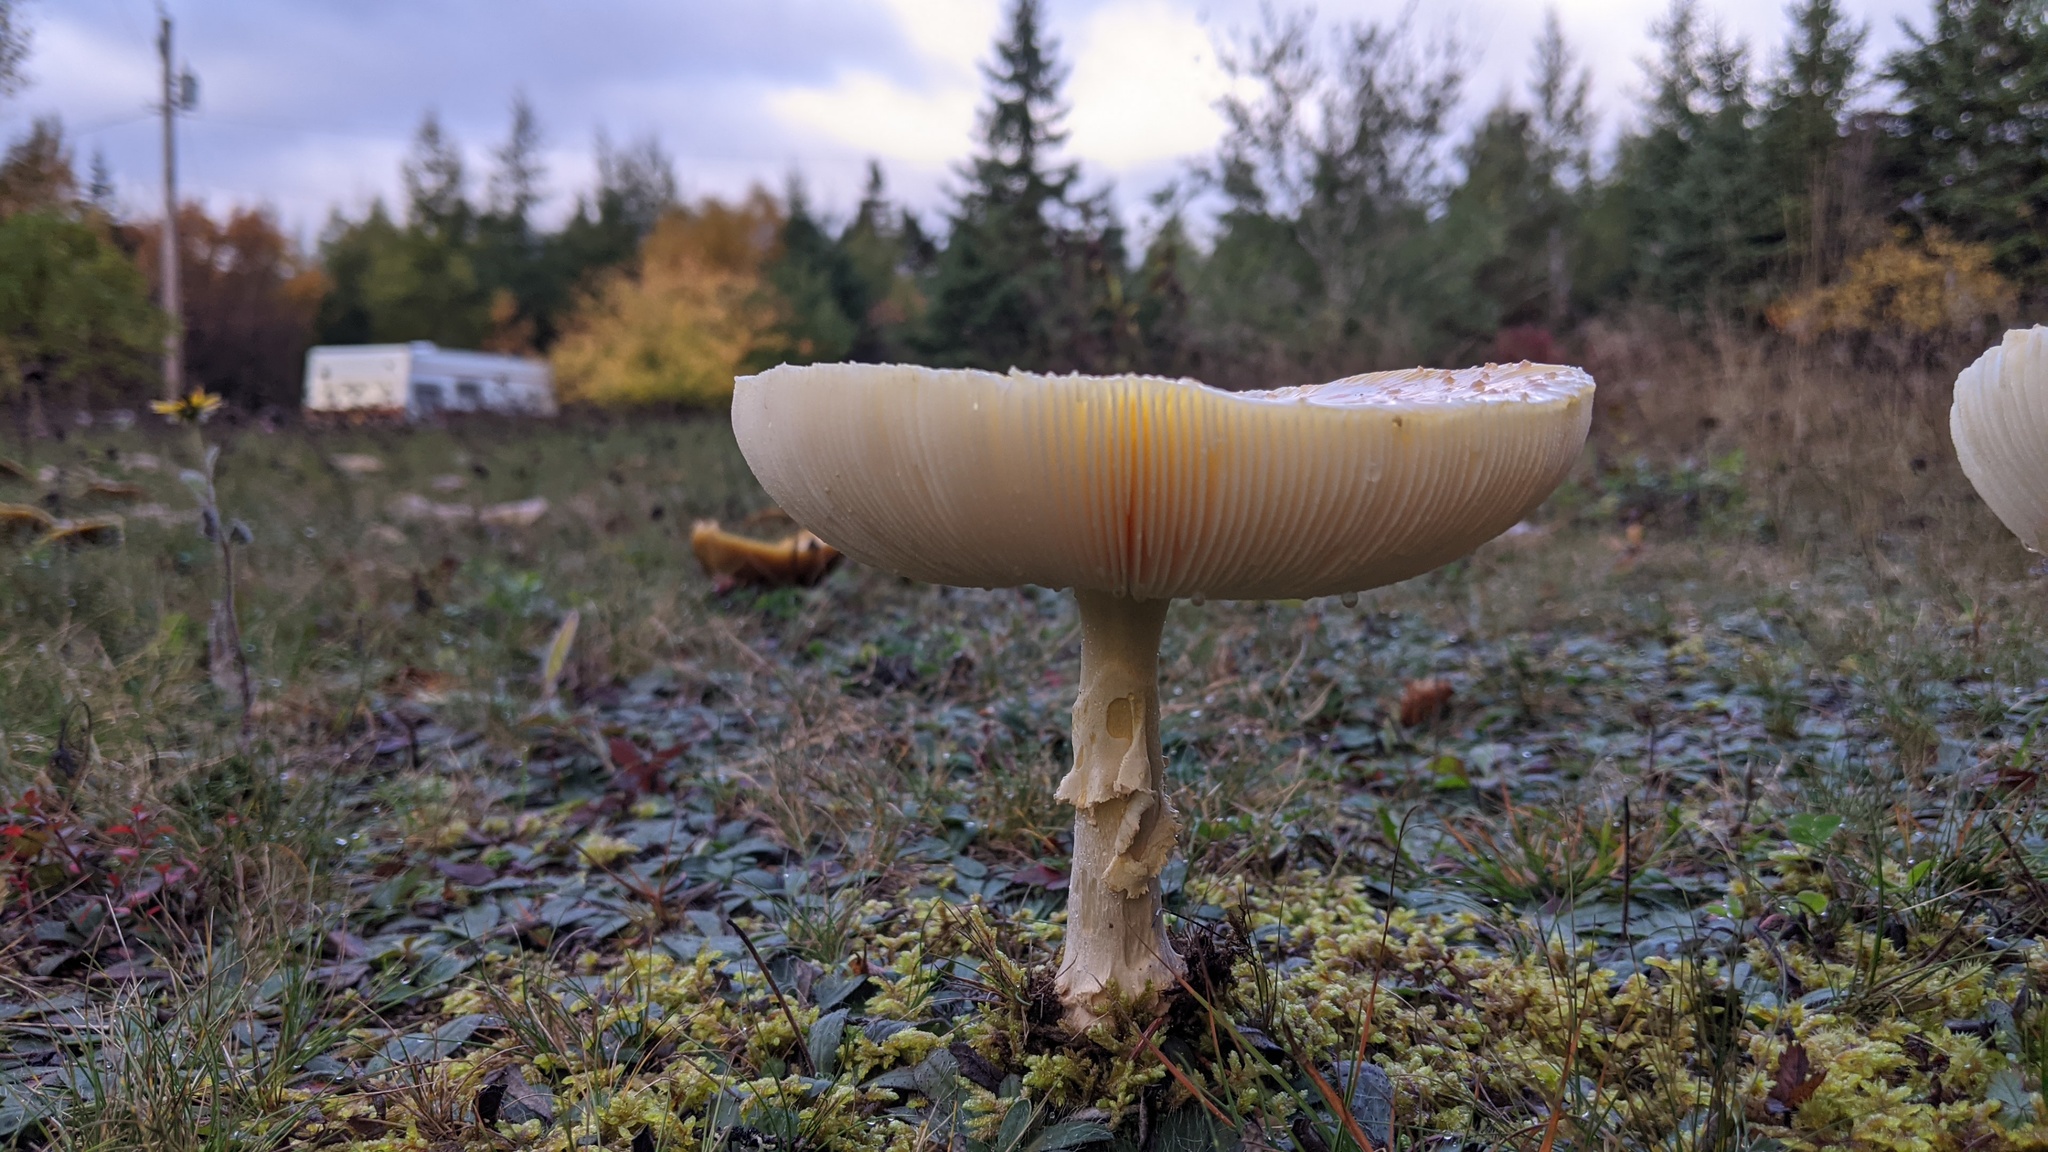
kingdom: Fungi
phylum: Basidiomycota
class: Agaricomycetes
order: Agaricales
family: Amanitaceae
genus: Amanita
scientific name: Amanita muscaria
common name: Fly agaric
